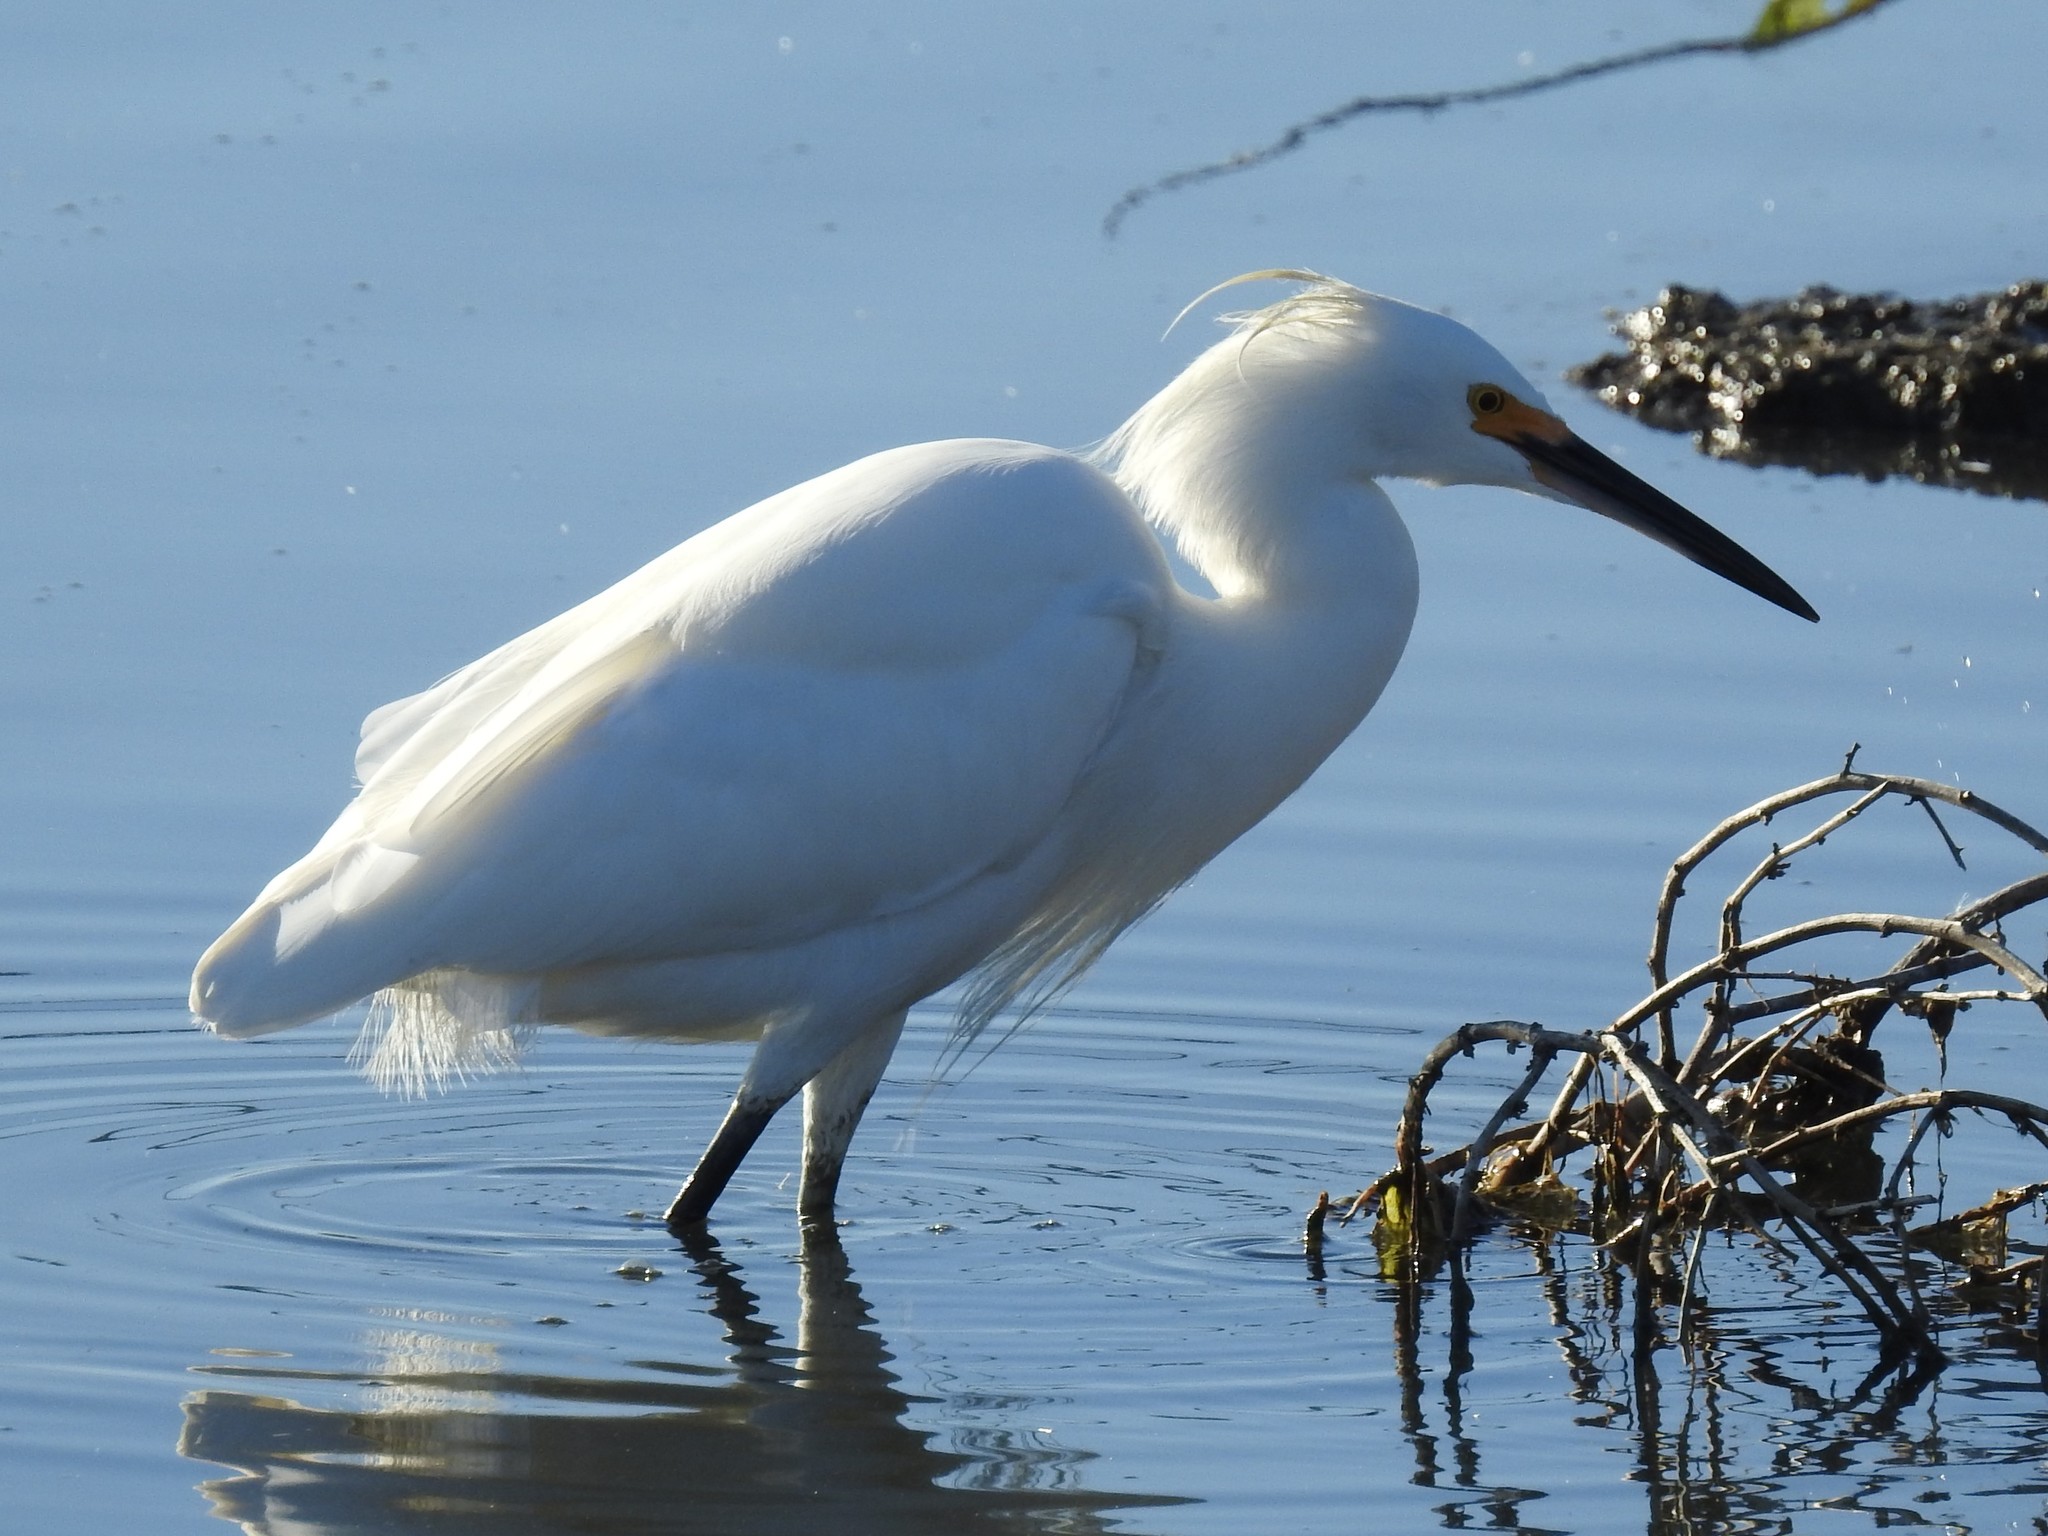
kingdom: Animalia
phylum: Chordata
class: Aves
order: Pelecaniformes
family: Ardeidae
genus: Egretta
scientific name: Egretta thula
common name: Snowy egret
